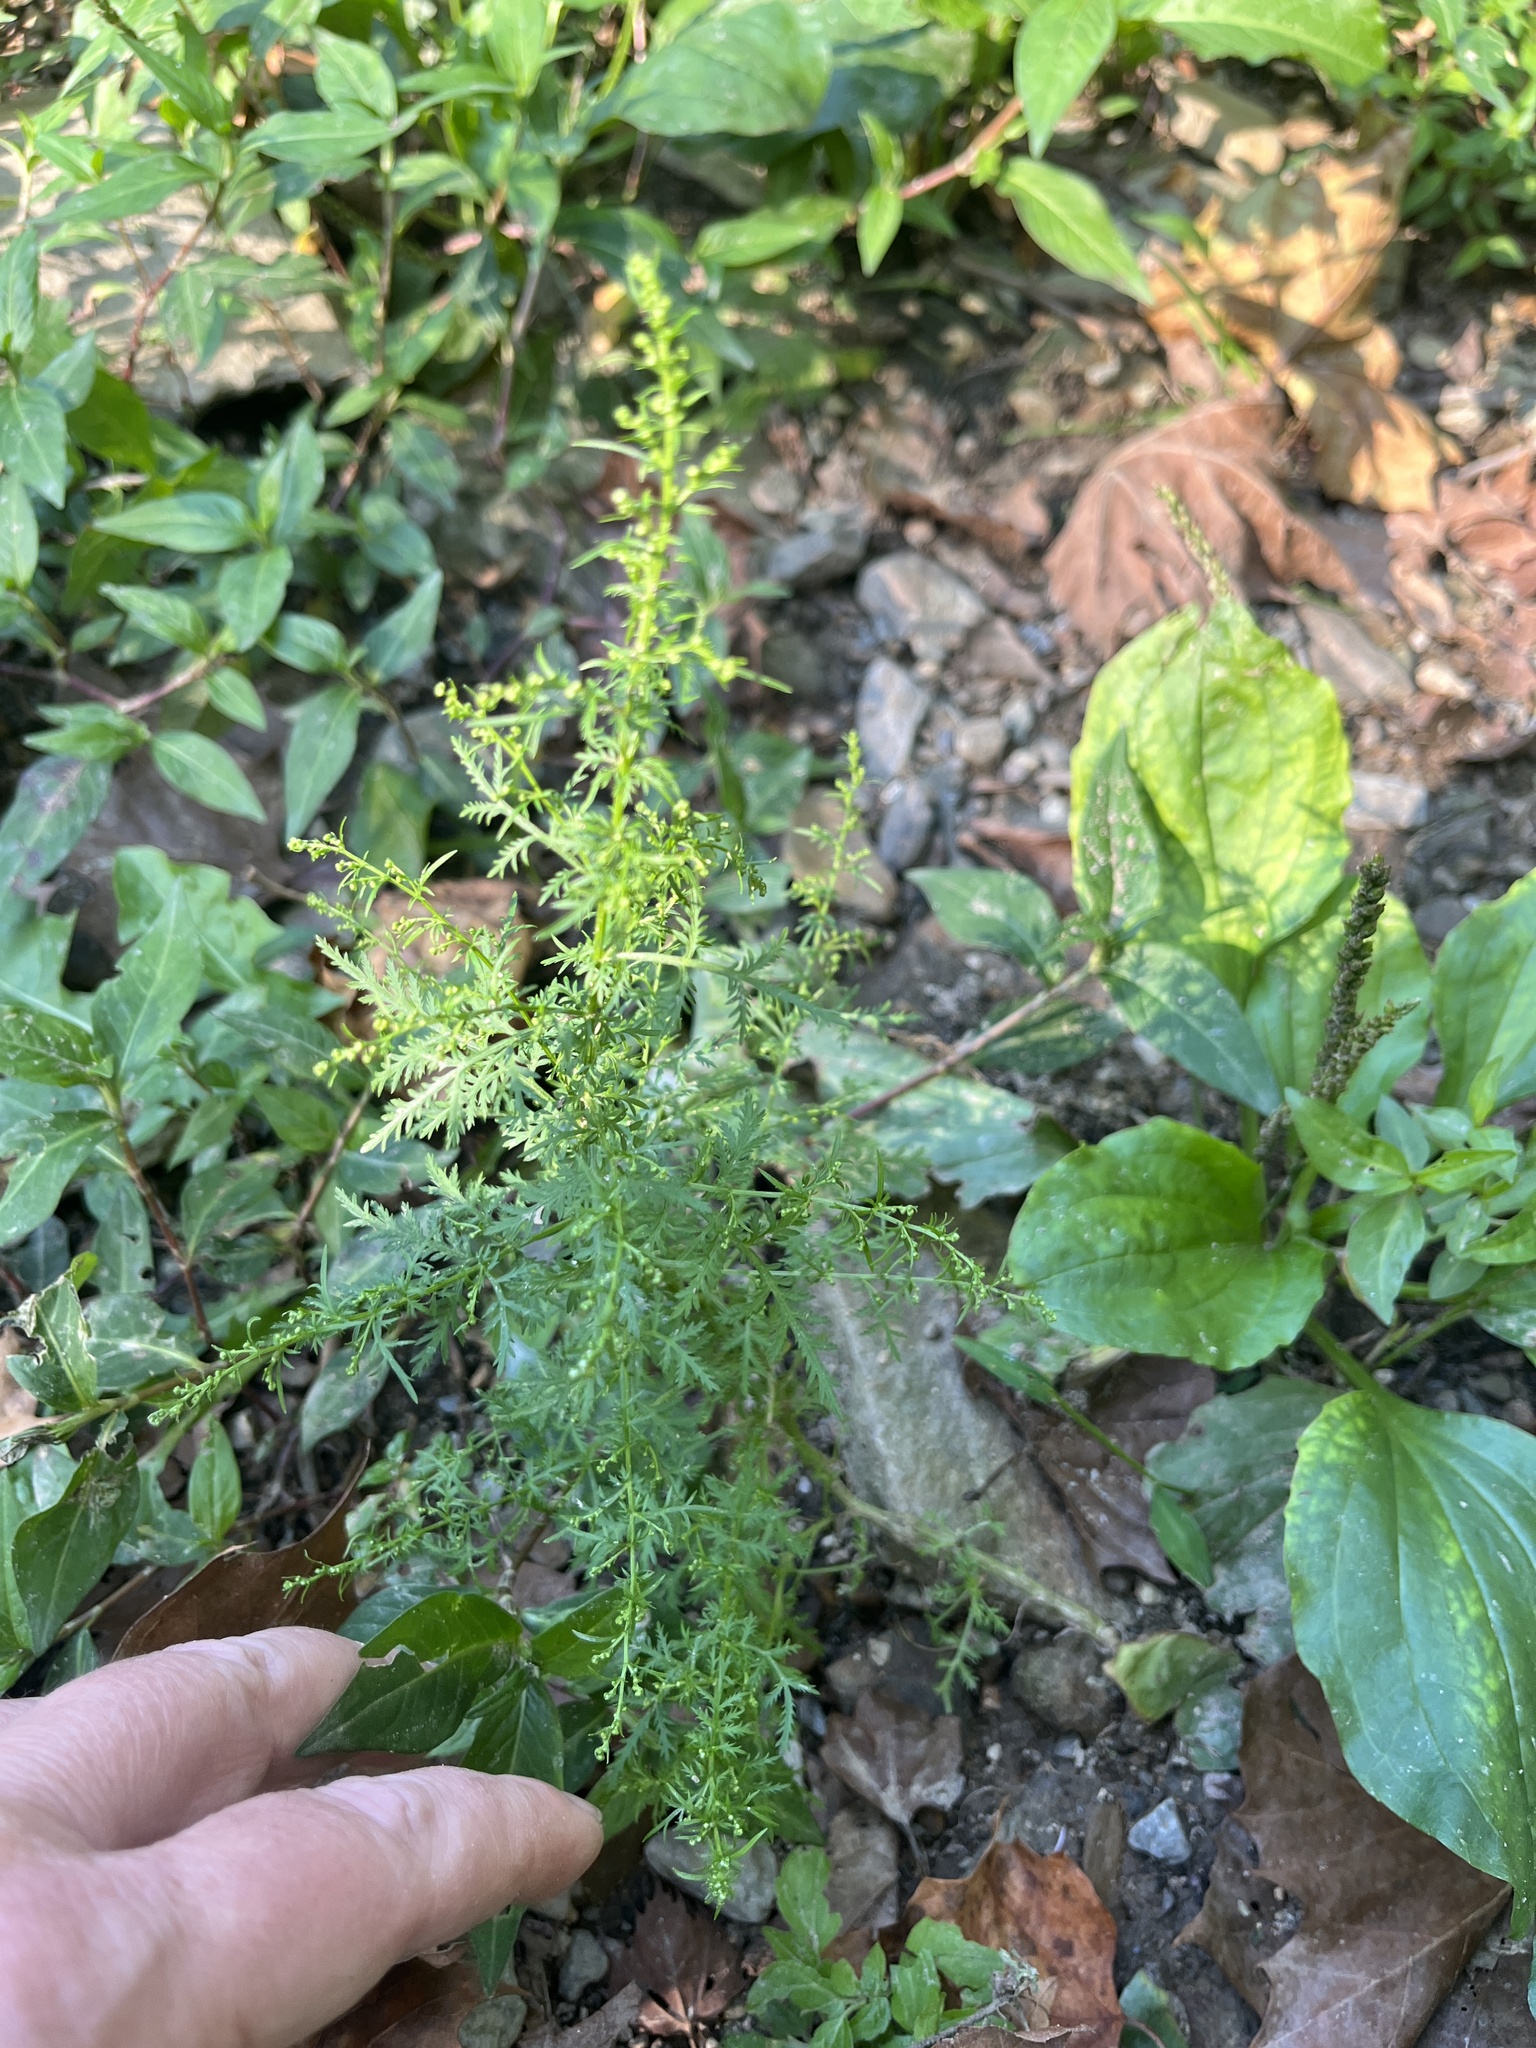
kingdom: Plantae
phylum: Tracheophyta
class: Magnoliopsida
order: Asterales
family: Asteraceae
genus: Artemisia
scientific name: Artemisia annua
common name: Sweet sagewort
